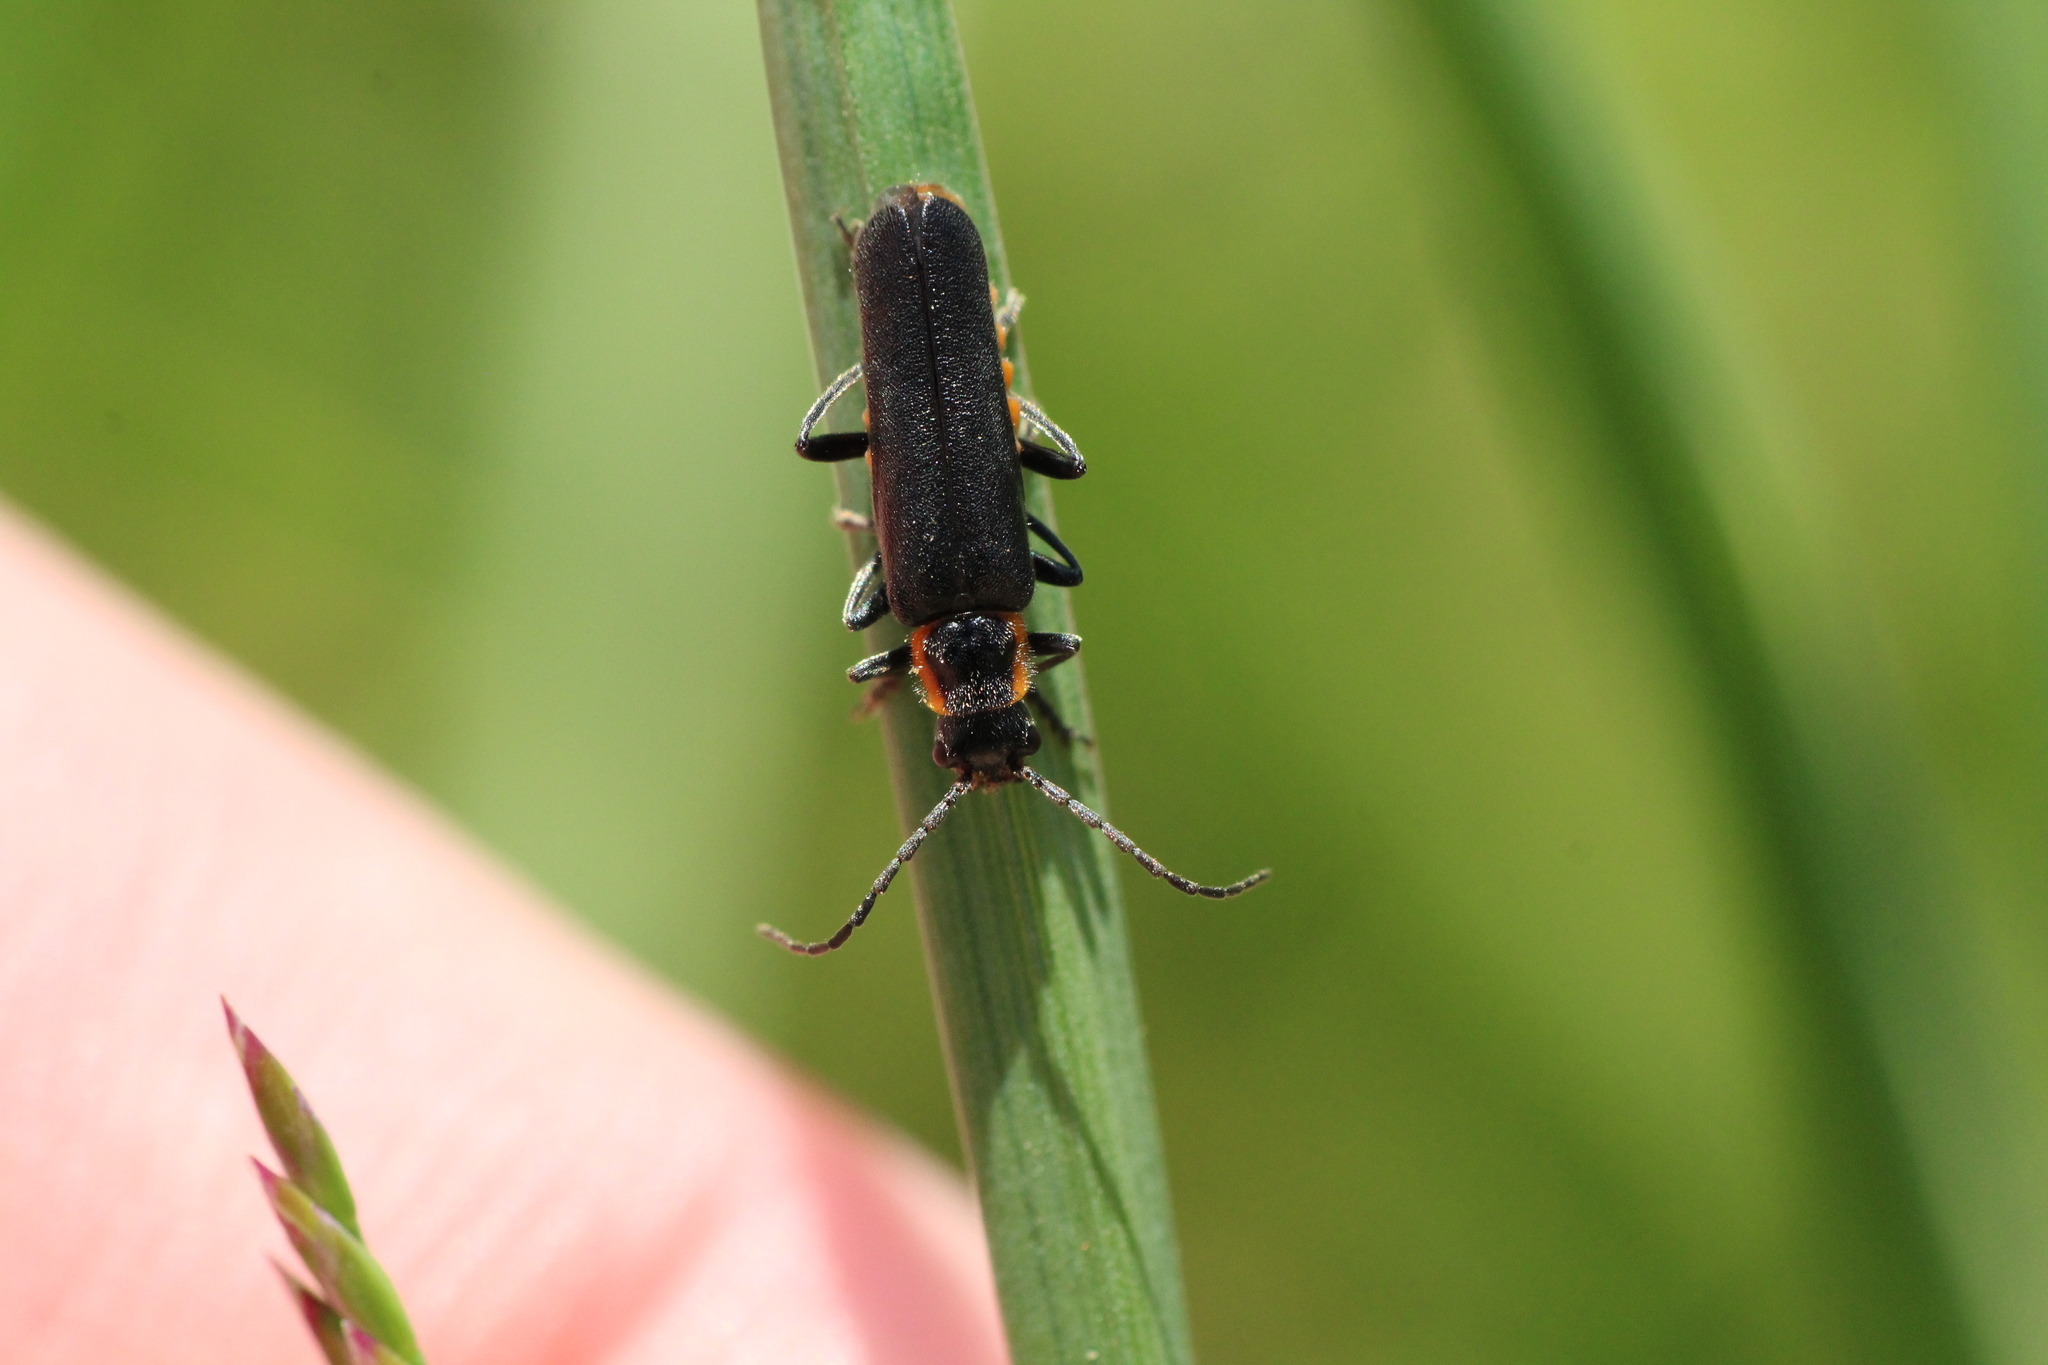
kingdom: Animalia
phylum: Arthropoda
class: Insecta
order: Coleoptera
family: Cantharidae
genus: Cantharis
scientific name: Cantharis pulicaria
